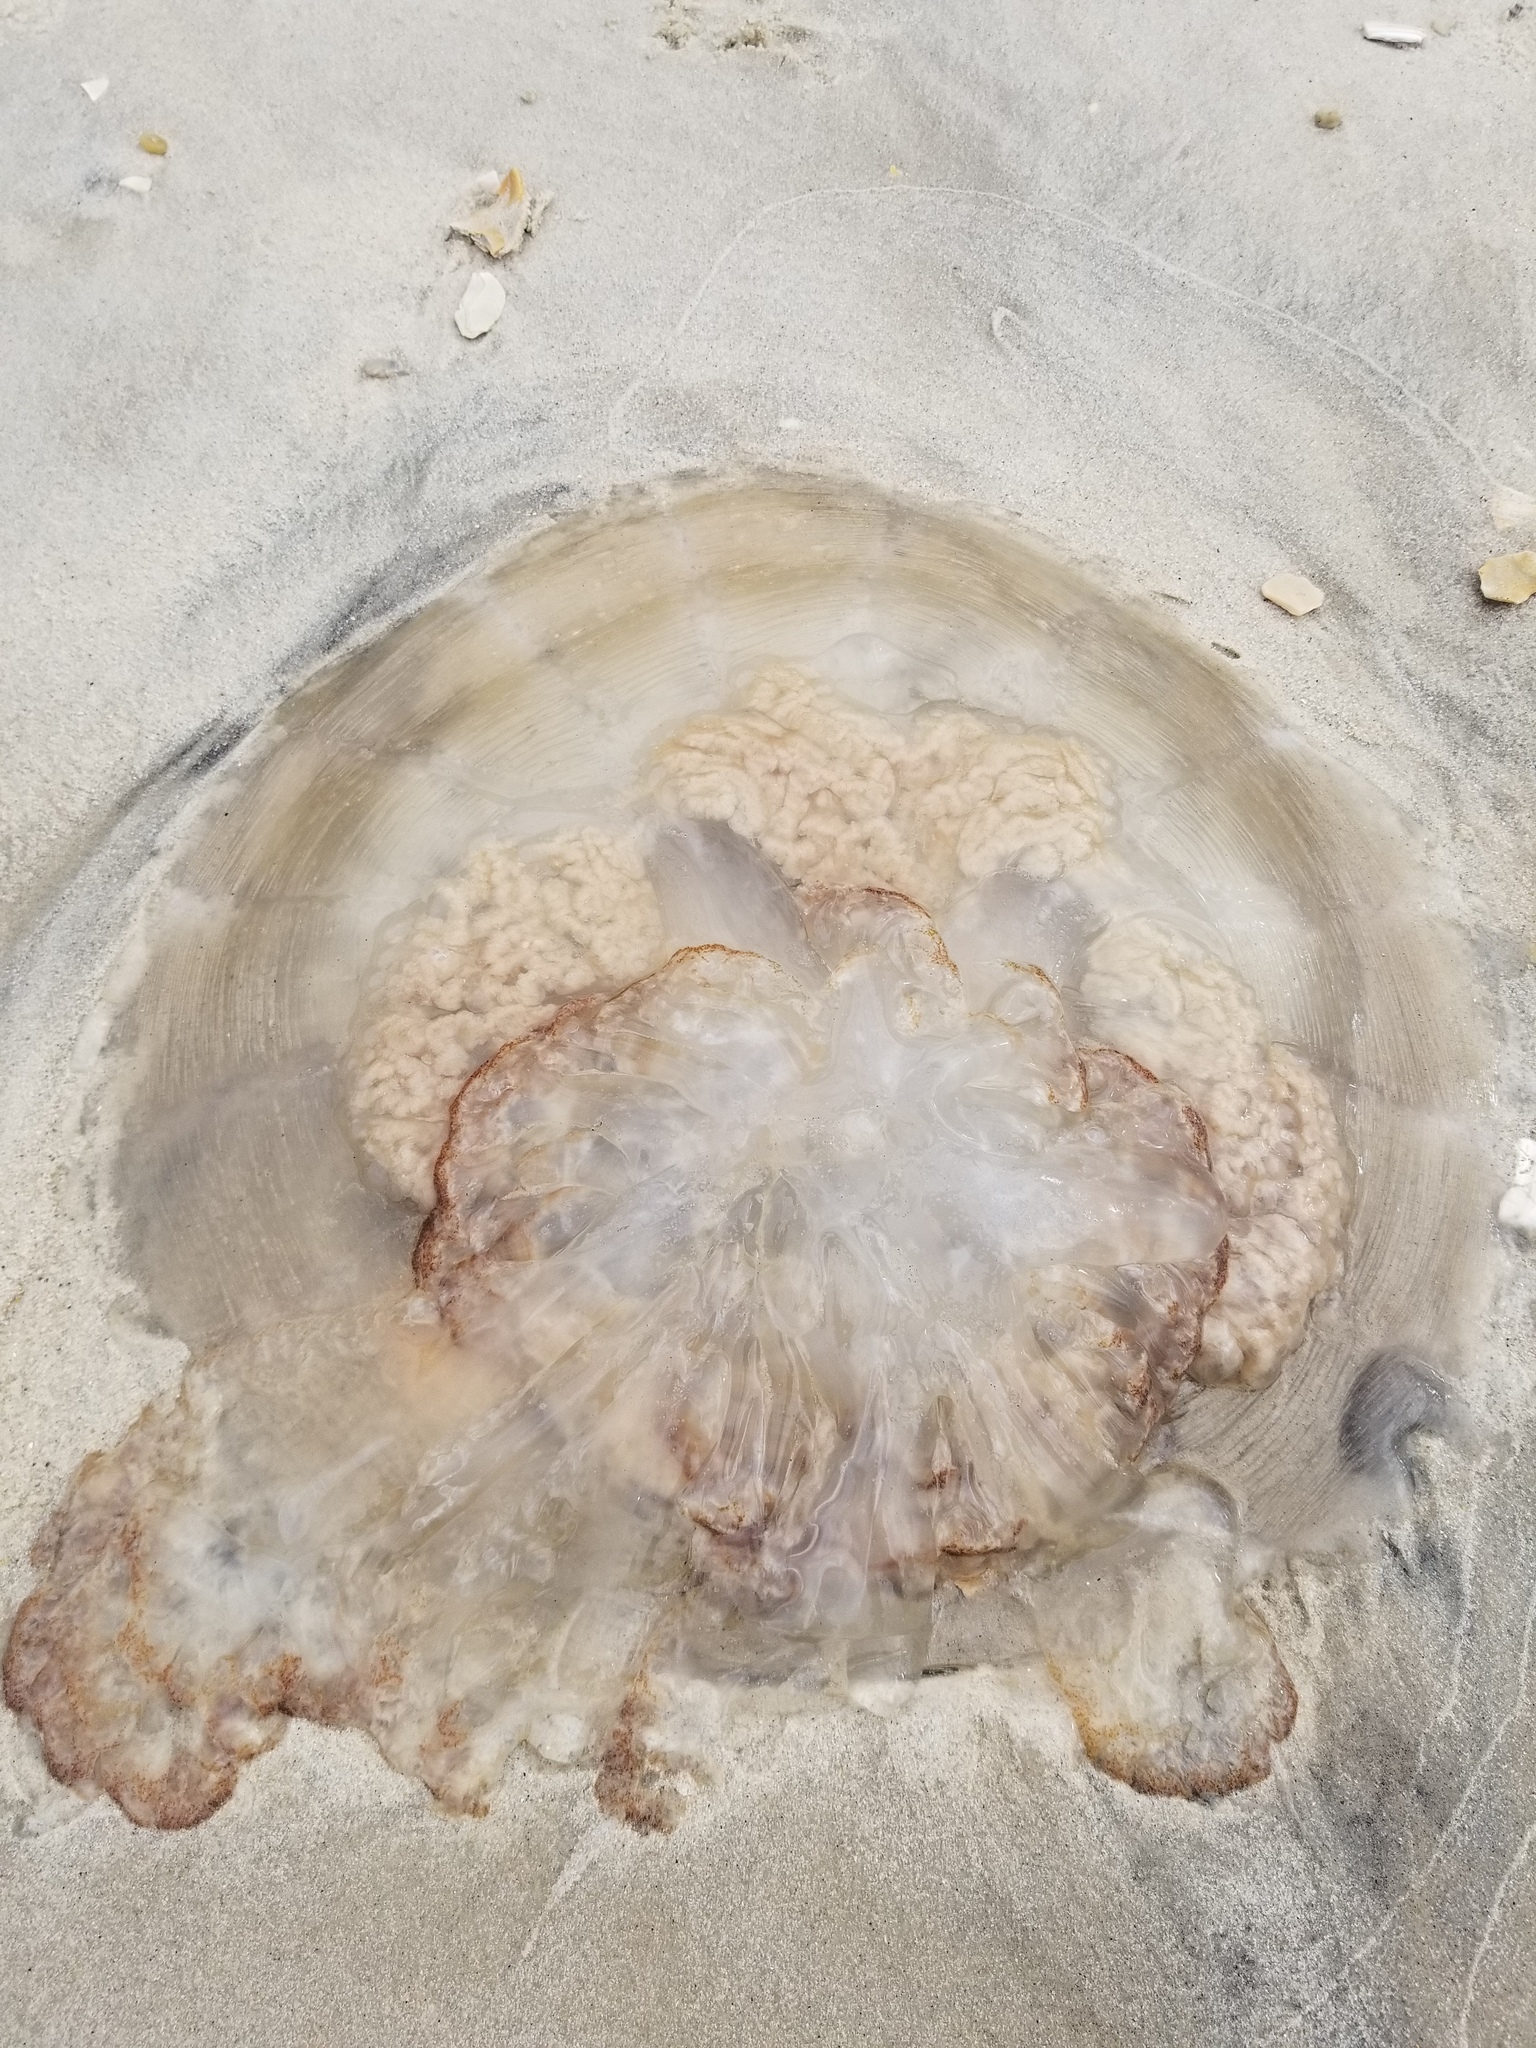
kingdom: Animalia
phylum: Cnidaria
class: Scyphozoa
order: Rhizostomeae
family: Rhizostomatidae
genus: Rhopilema
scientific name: Rhopilema verrilli
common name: Mushroom cap jellyfish
